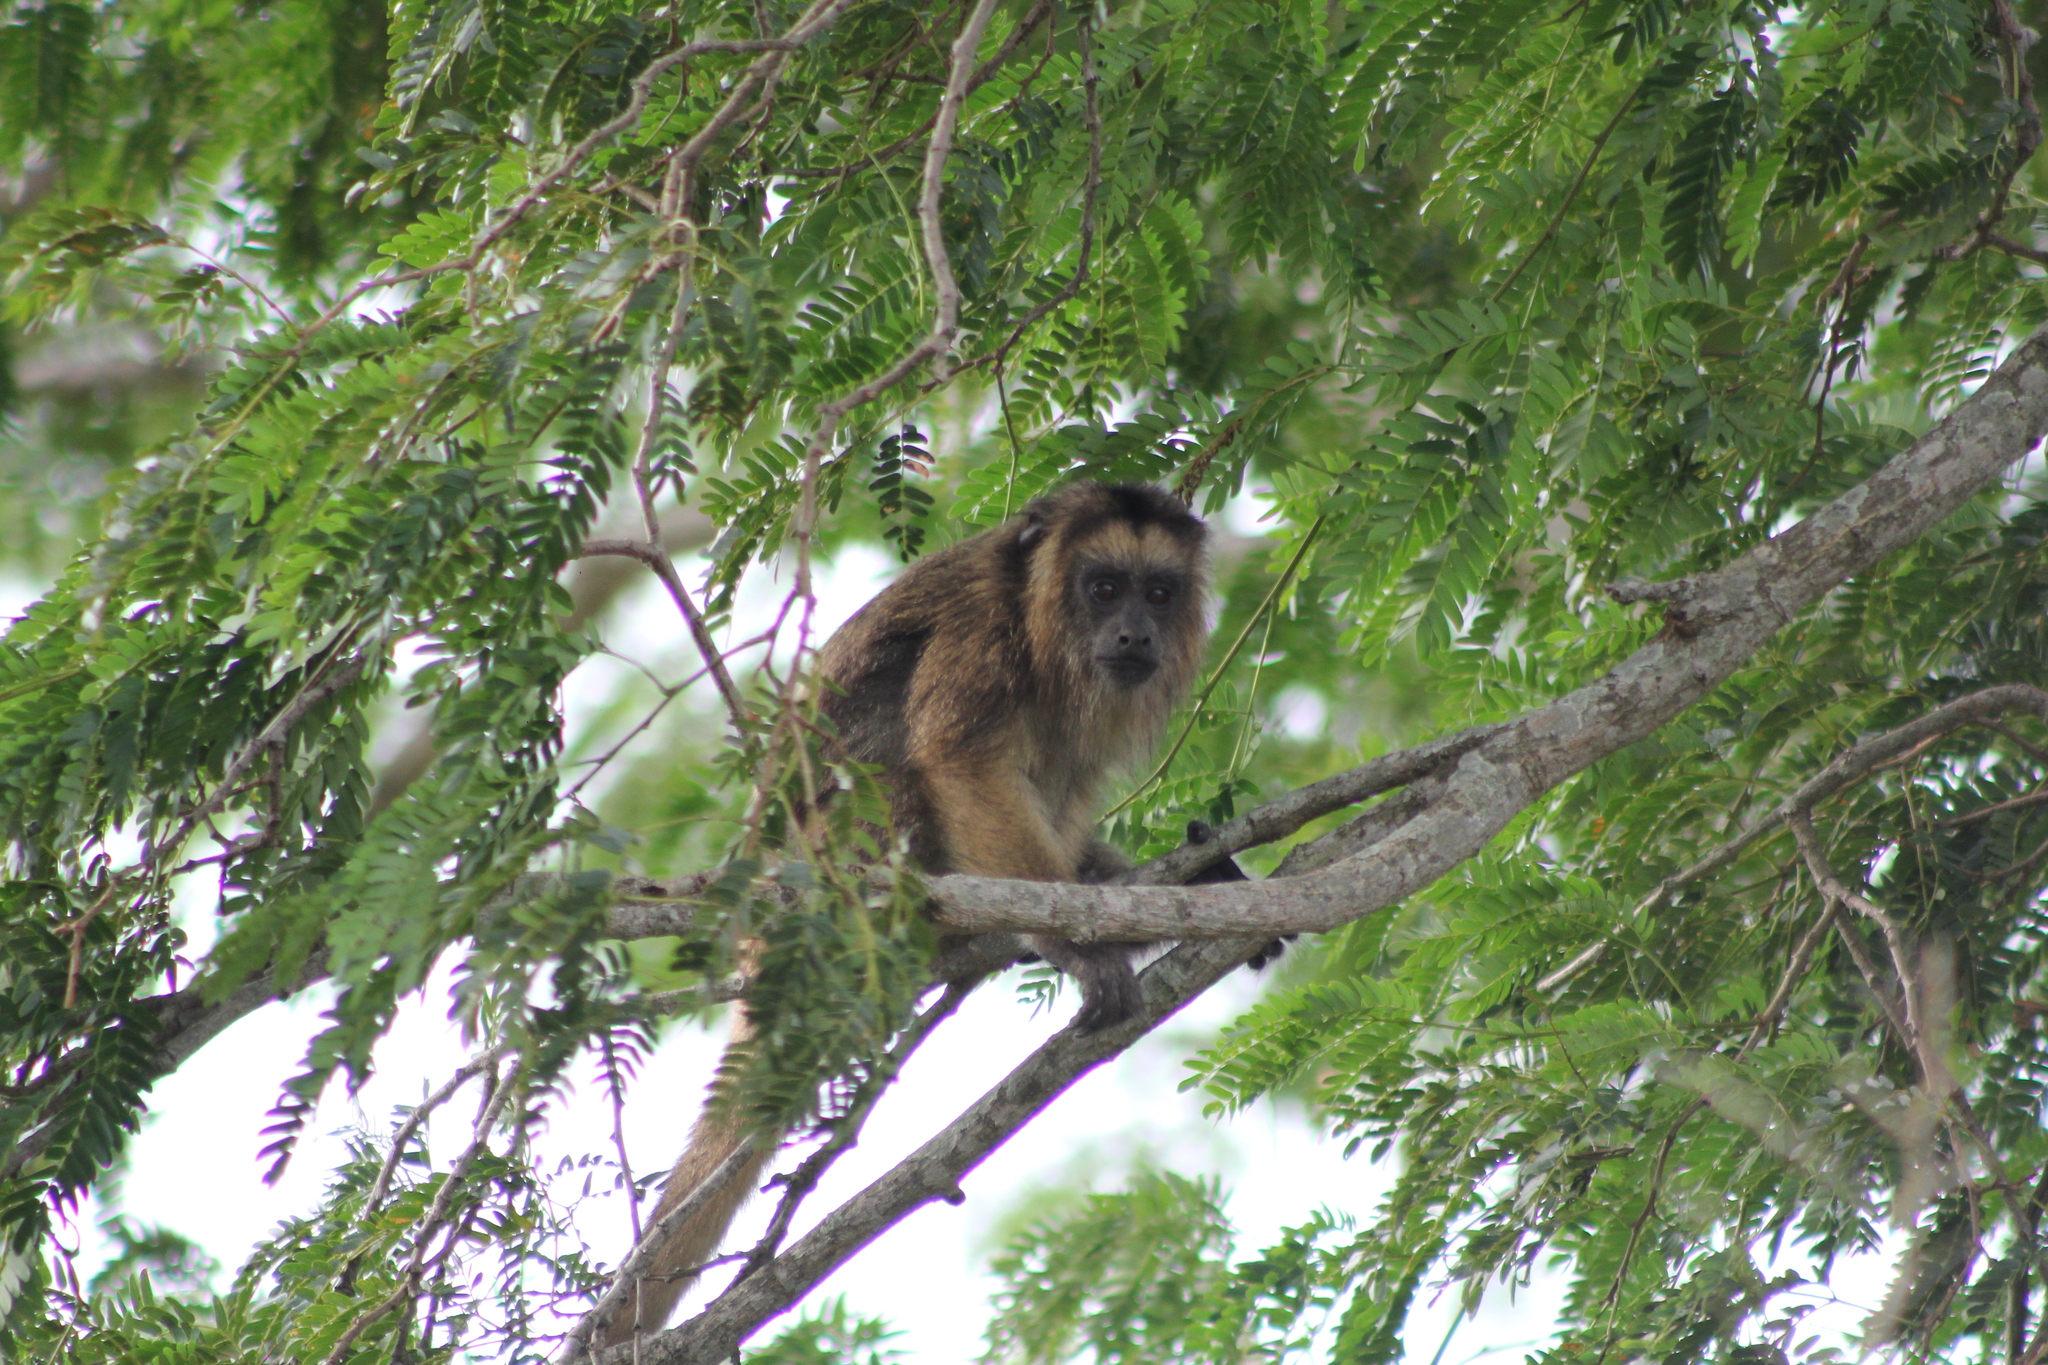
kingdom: Animalia
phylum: Chordata
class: Mammalia
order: Primates
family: Atelidae
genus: Alouatta
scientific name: Alouatta caraya
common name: Black howler
